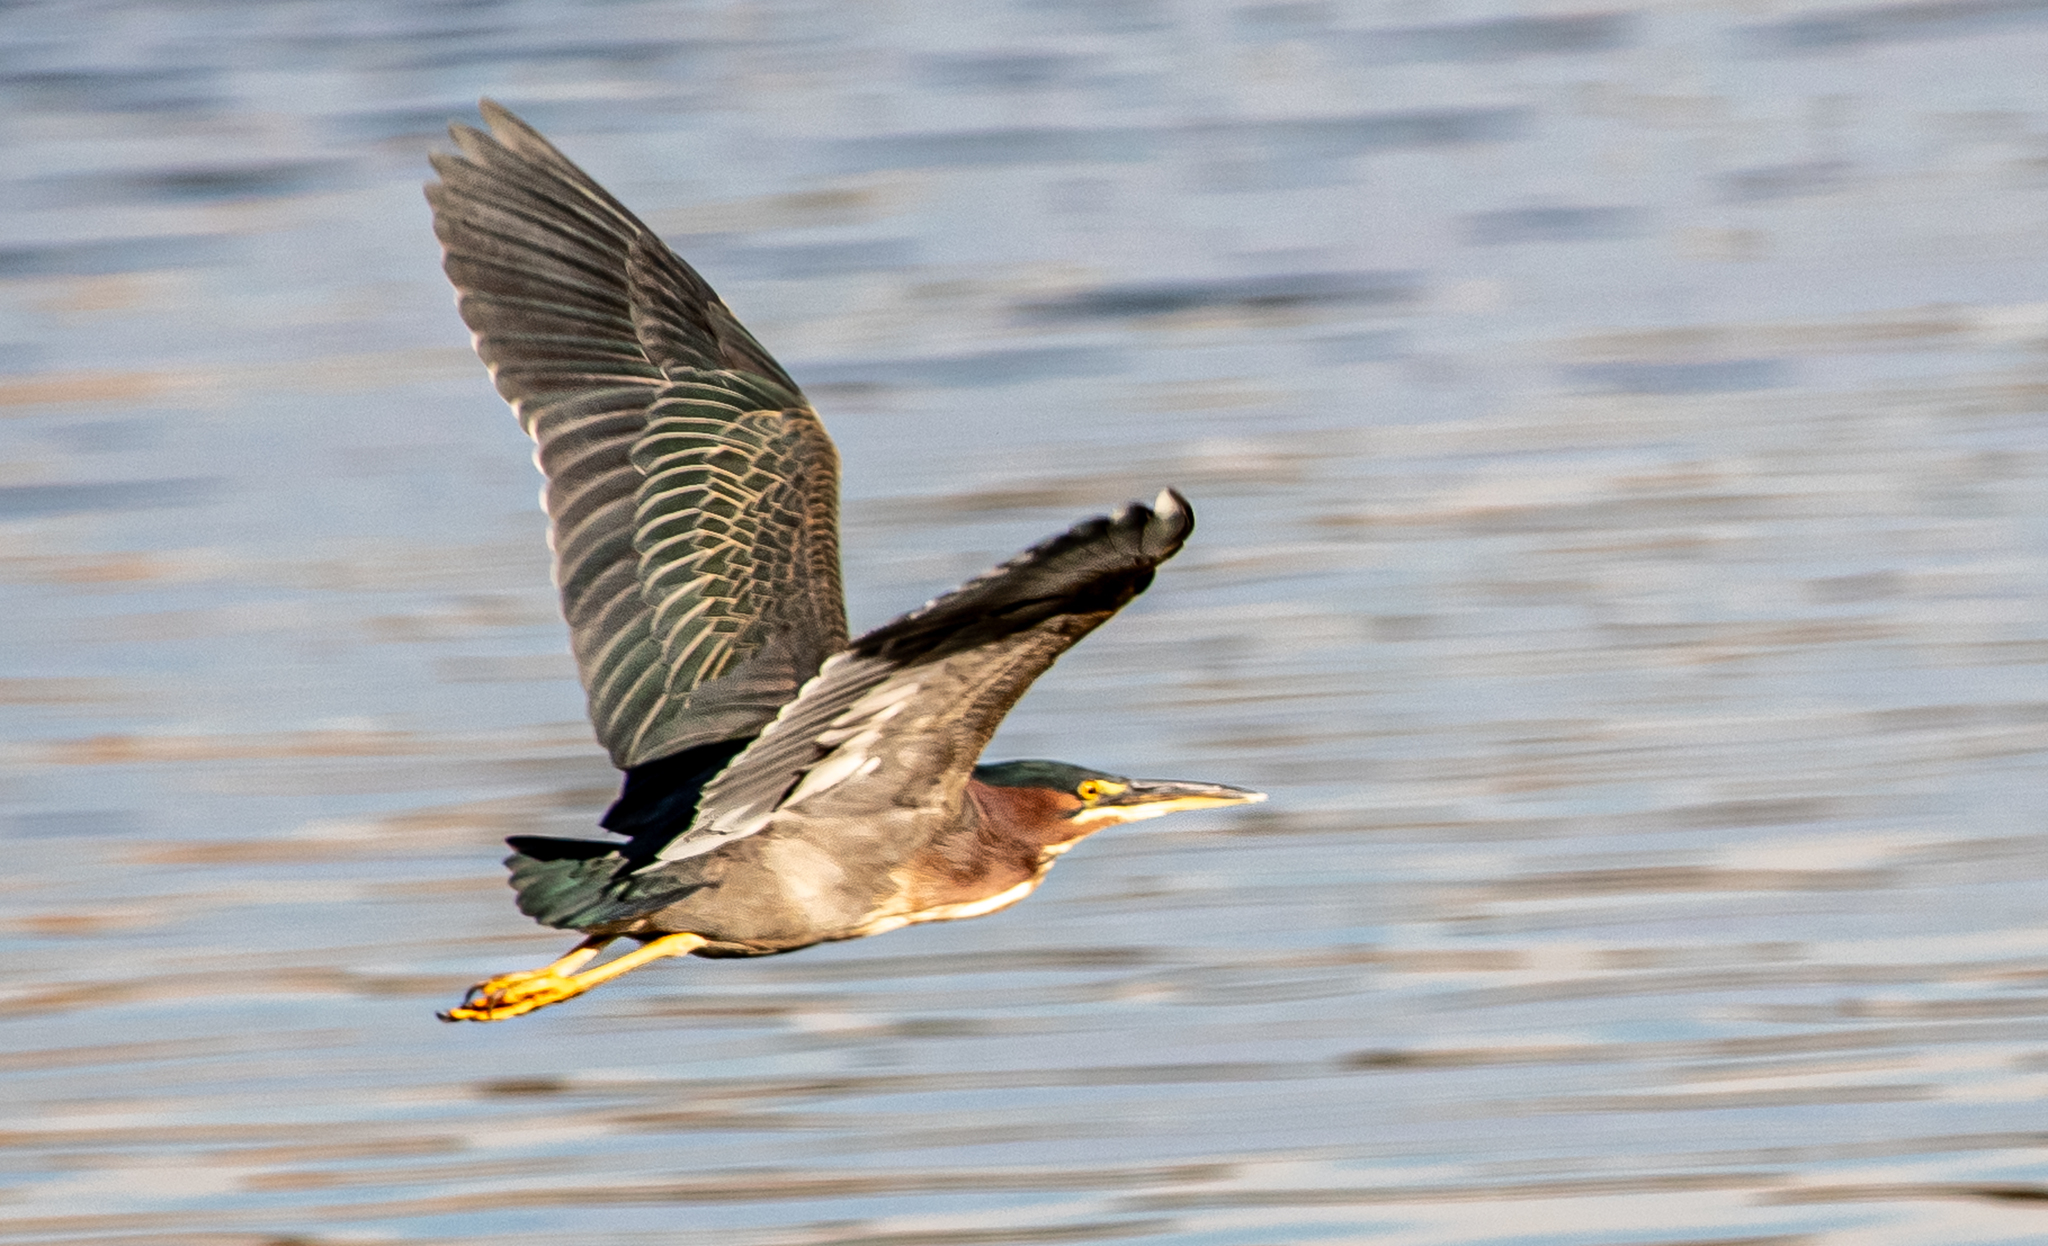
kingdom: Animalia
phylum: Chordata
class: Aves
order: Pelecaniformes
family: Ardeidae
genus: Butorides
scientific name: Butorides virescens
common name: Green heron
